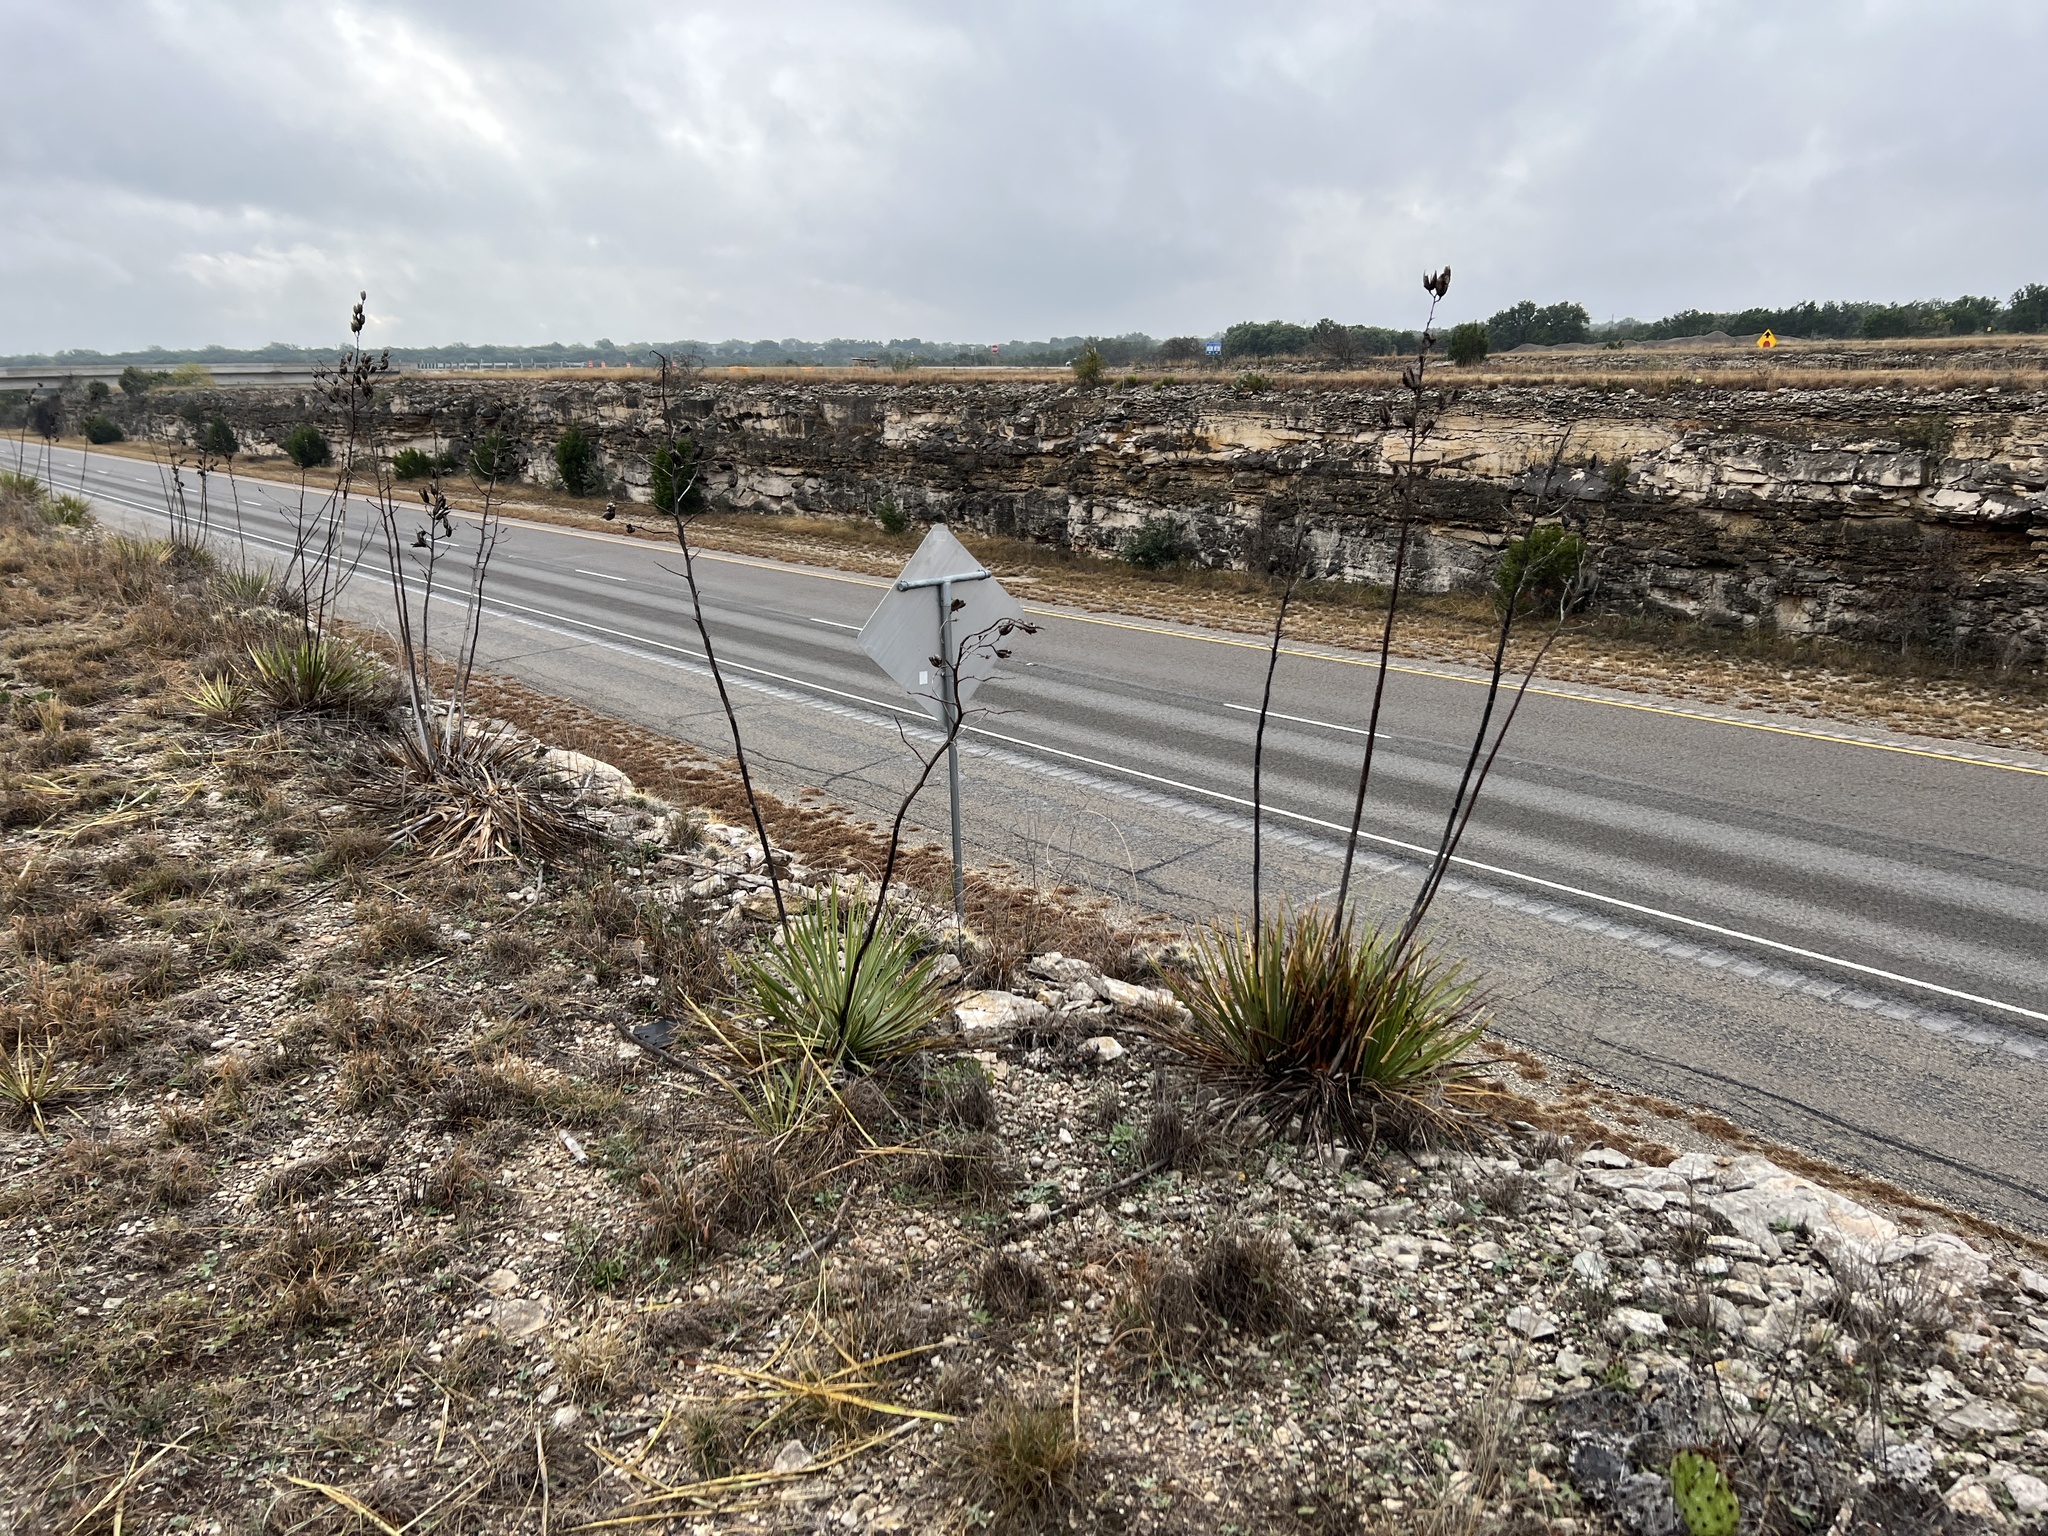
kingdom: Plantae
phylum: Tracheophyta
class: Liliopsida
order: Asparagales
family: Asparagaceae
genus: Yucca
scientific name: Yucca reverchonii
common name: San angelo yucca
